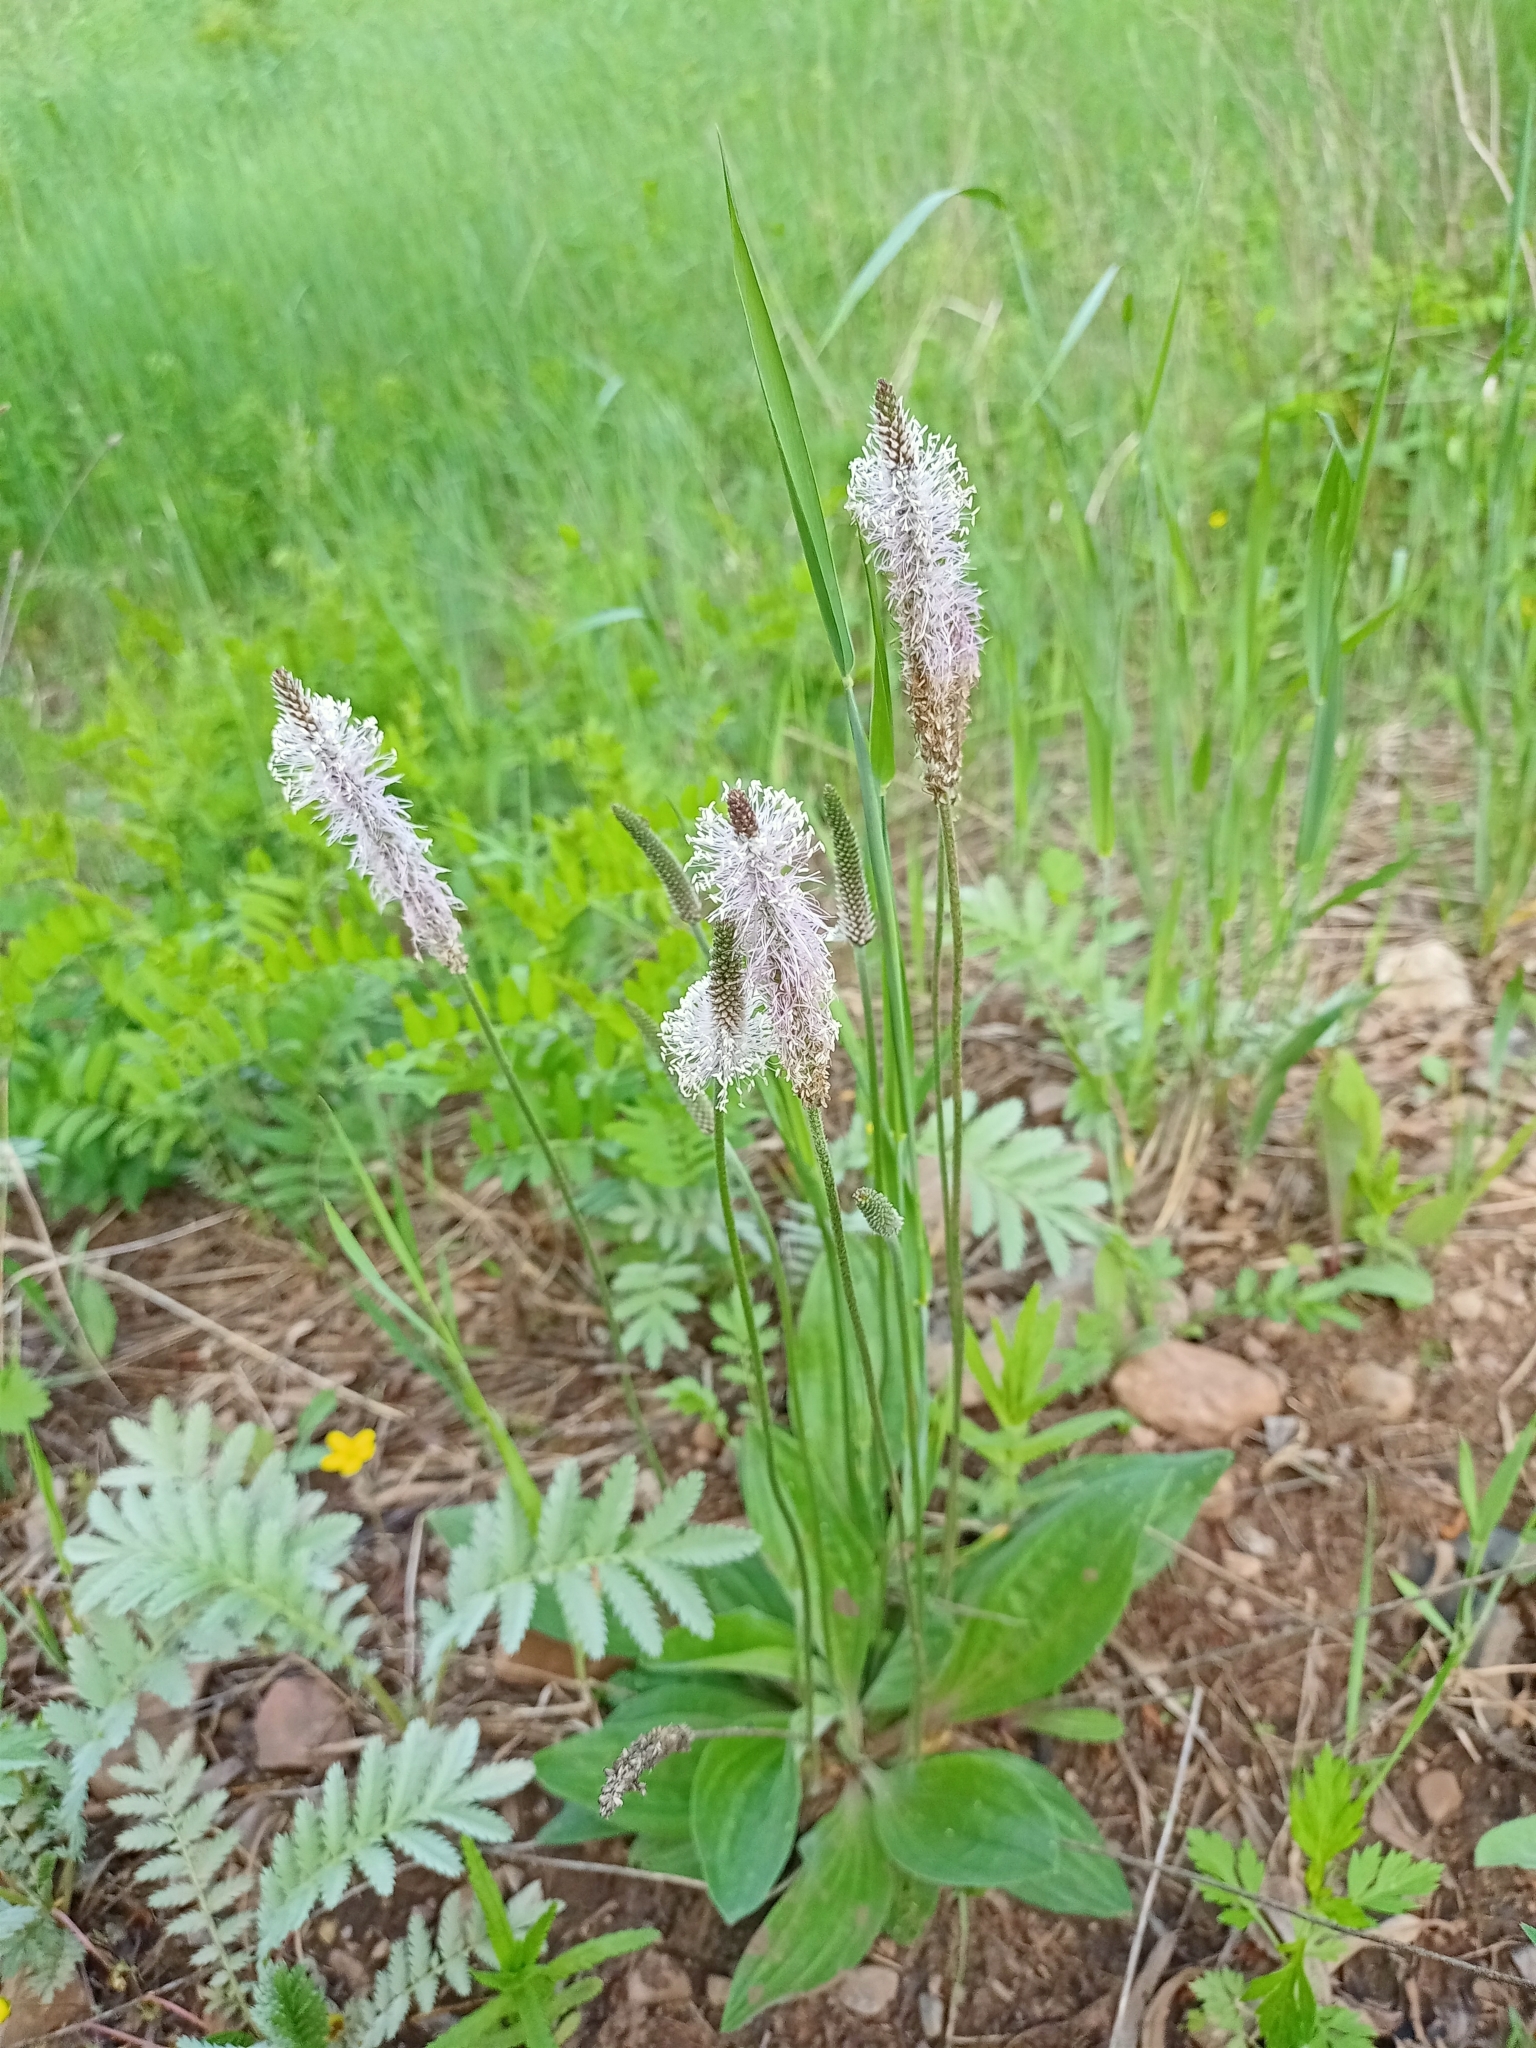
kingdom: Plantae
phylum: Tracheophyta
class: Magnoliopsida
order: Lamiales
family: Plantaginaceae
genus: Plantago
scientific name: Plantago media
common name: Hoary plantain
